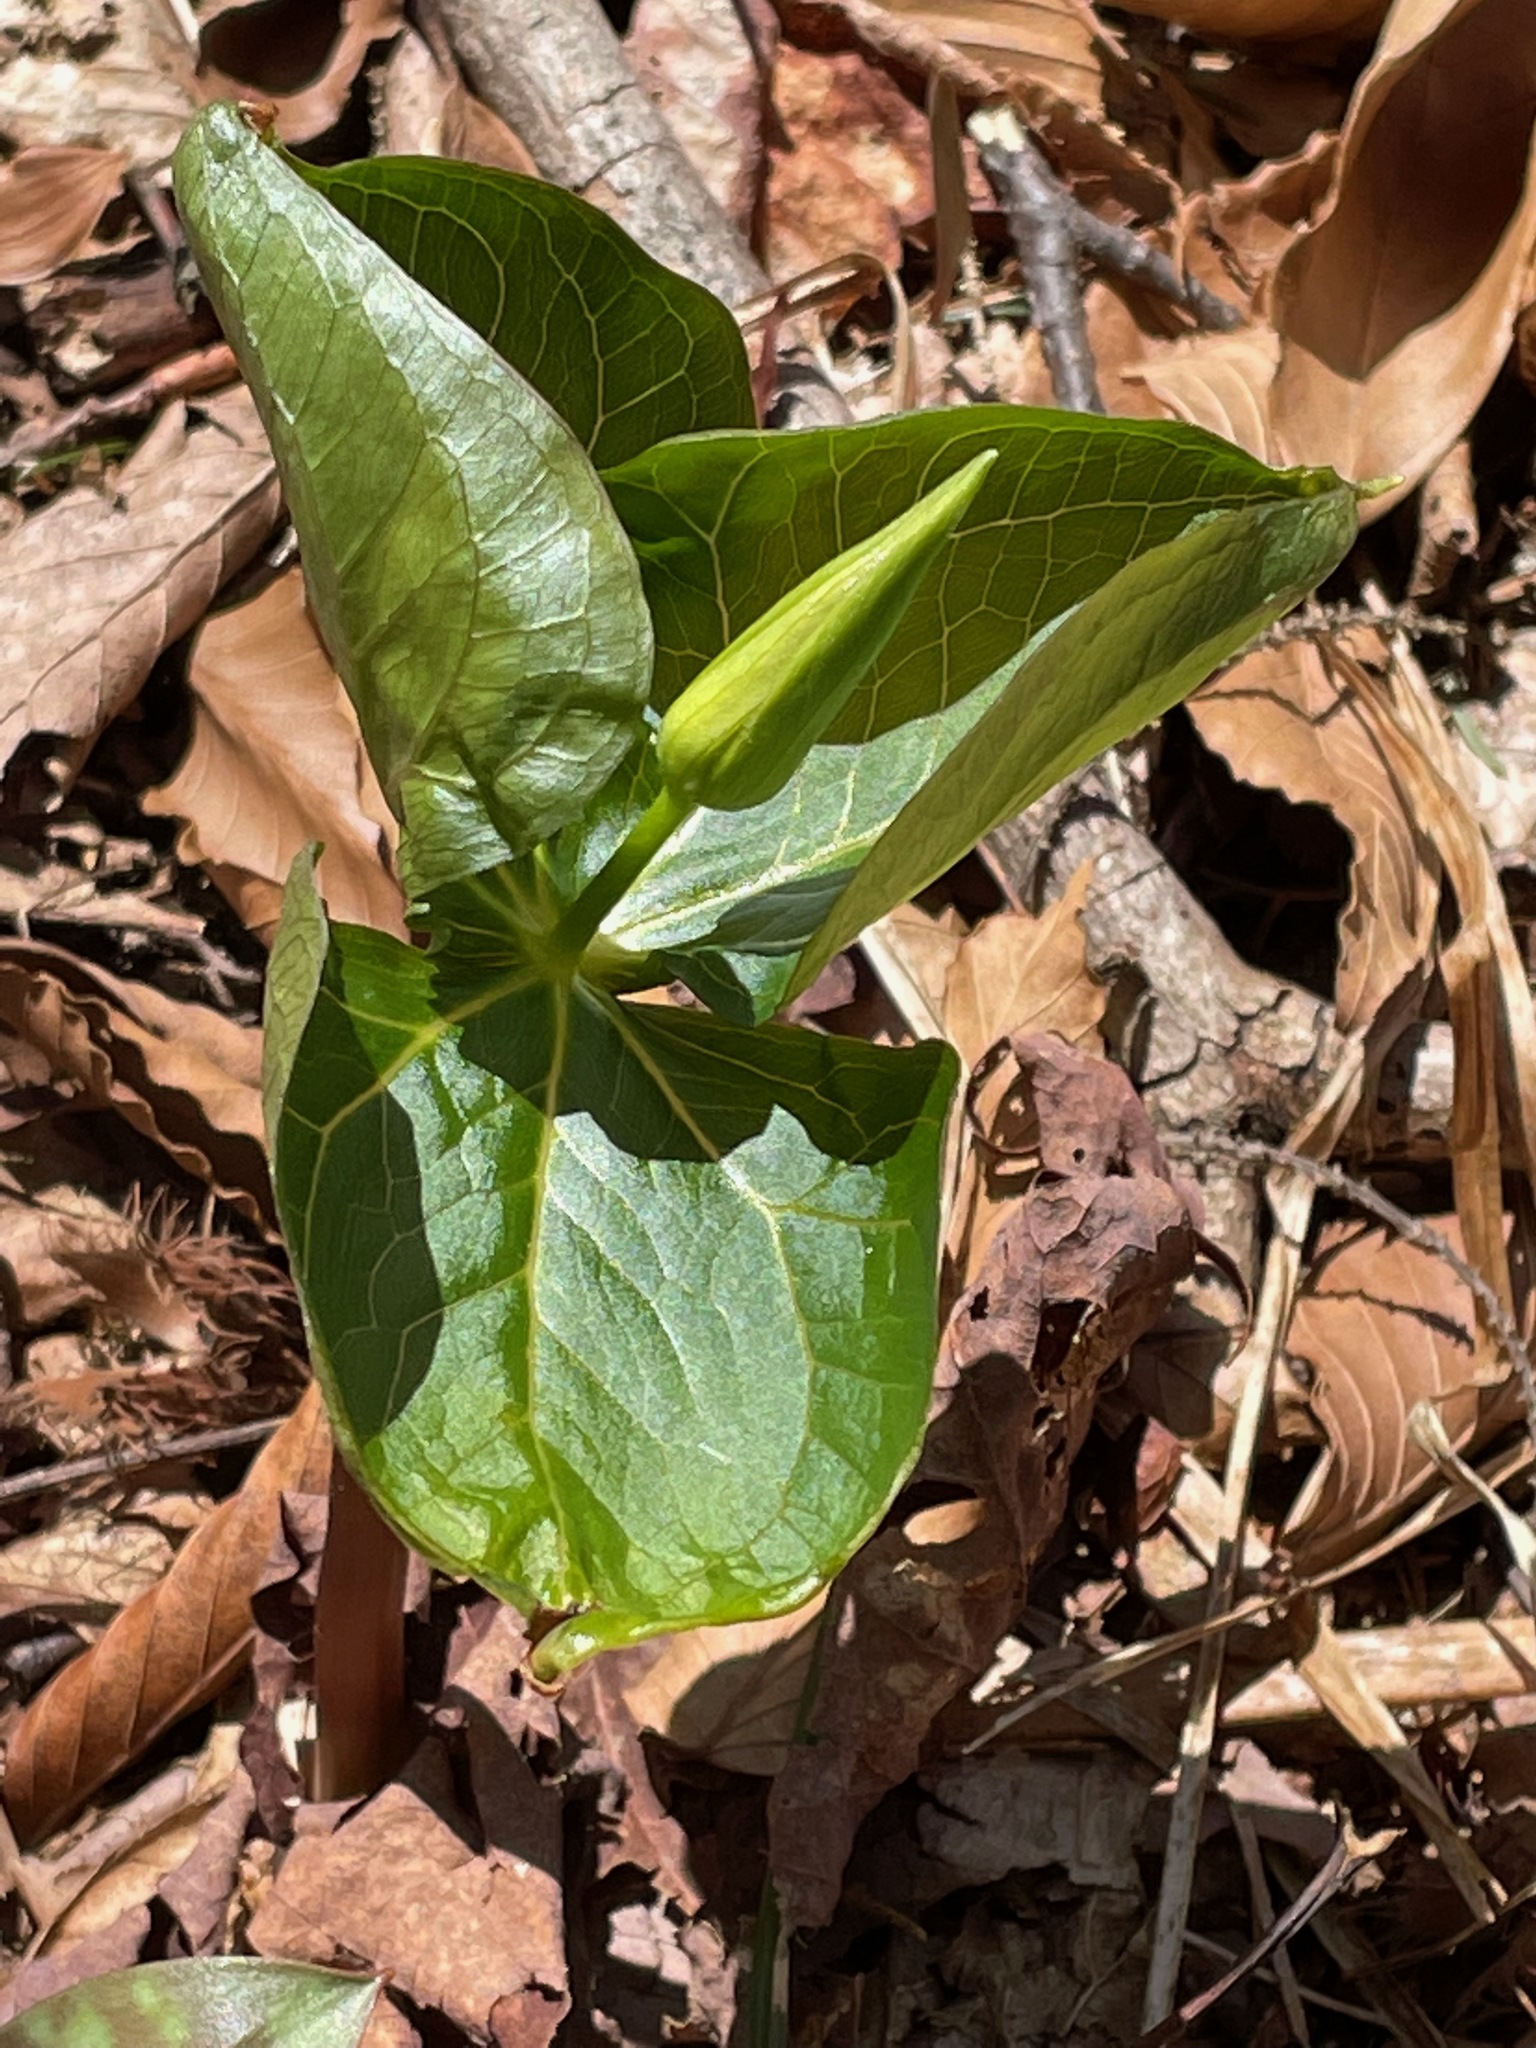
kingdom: Plantae
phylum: Tracheophyta
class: Liliopsida
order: Liliales
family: Melanthiaceae
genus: Trillium
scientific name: Trillium erectum
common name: Purple trillium
